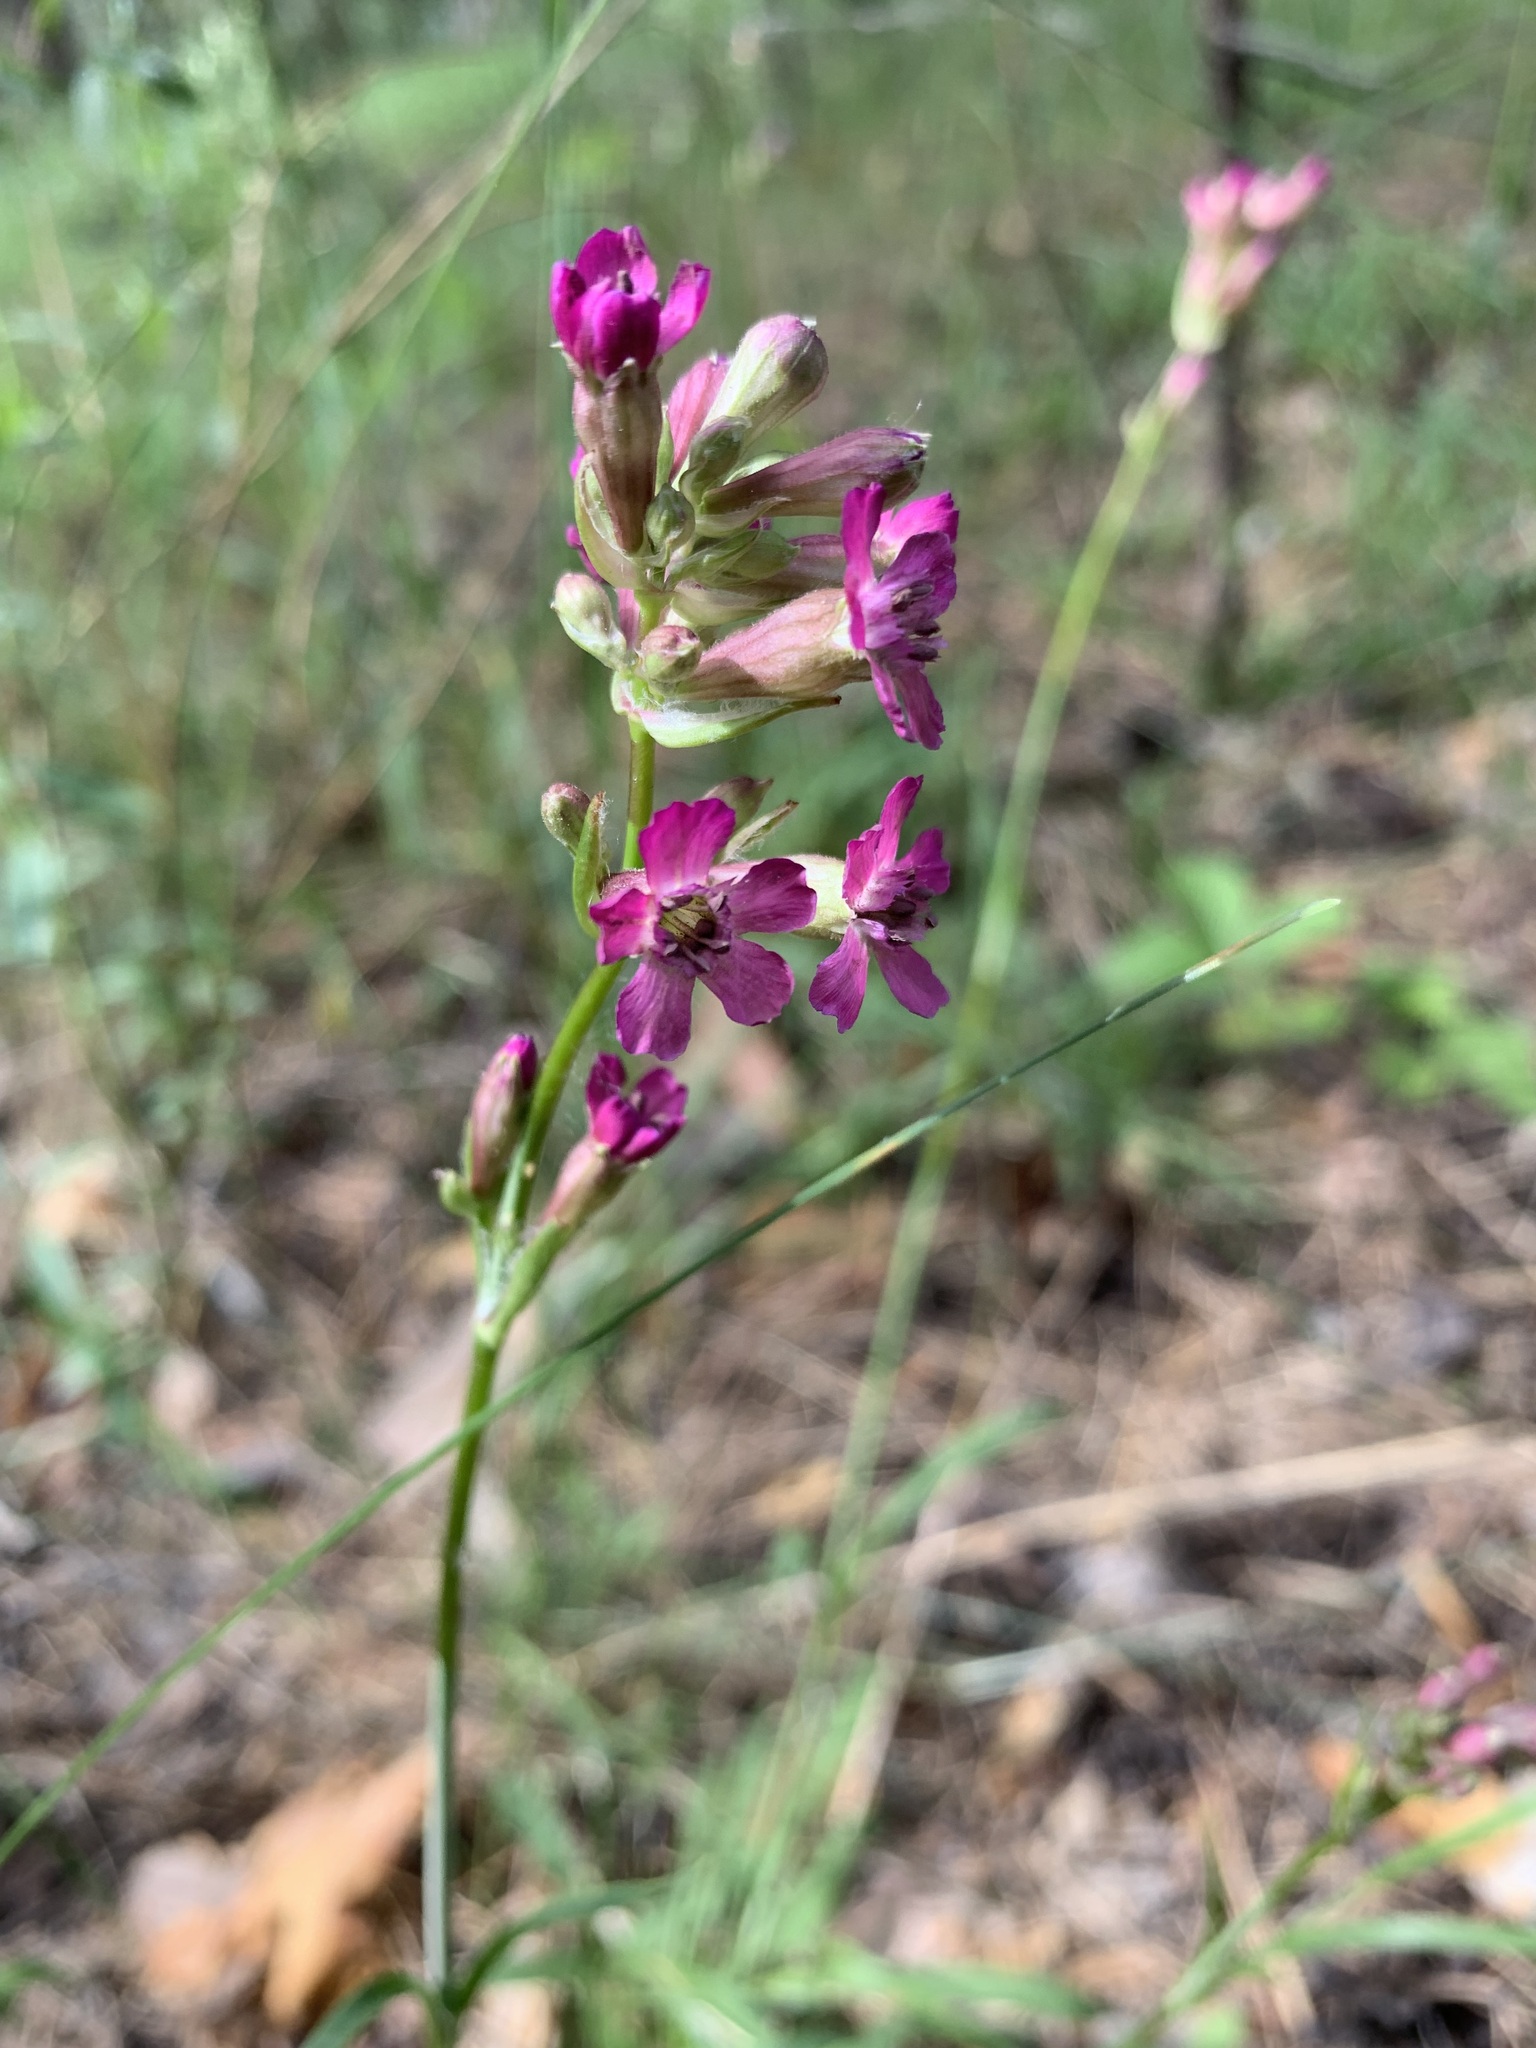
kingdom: Plantae
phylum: Tracheophyta
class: Magnoliopsida
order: Caryophyllales
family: Caryophyllaceae
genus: Viscaria
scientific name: Viscaria vulgaris
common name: Clammy campion
